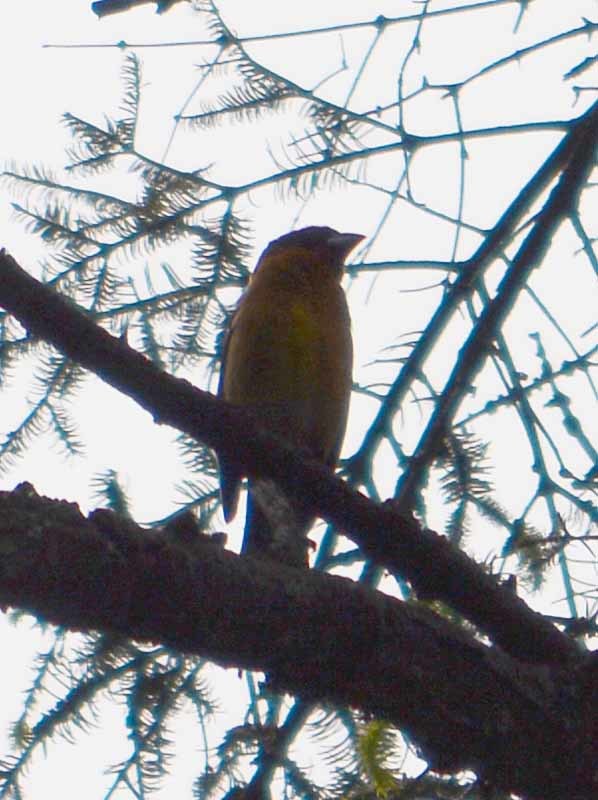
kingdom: Animalia
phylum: Chordata
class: Aves
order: Passeriformes
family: Cardinalidae
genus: Pheucticus
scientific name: Pheucticus melanocephalus
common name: Black-headed grosbeak
